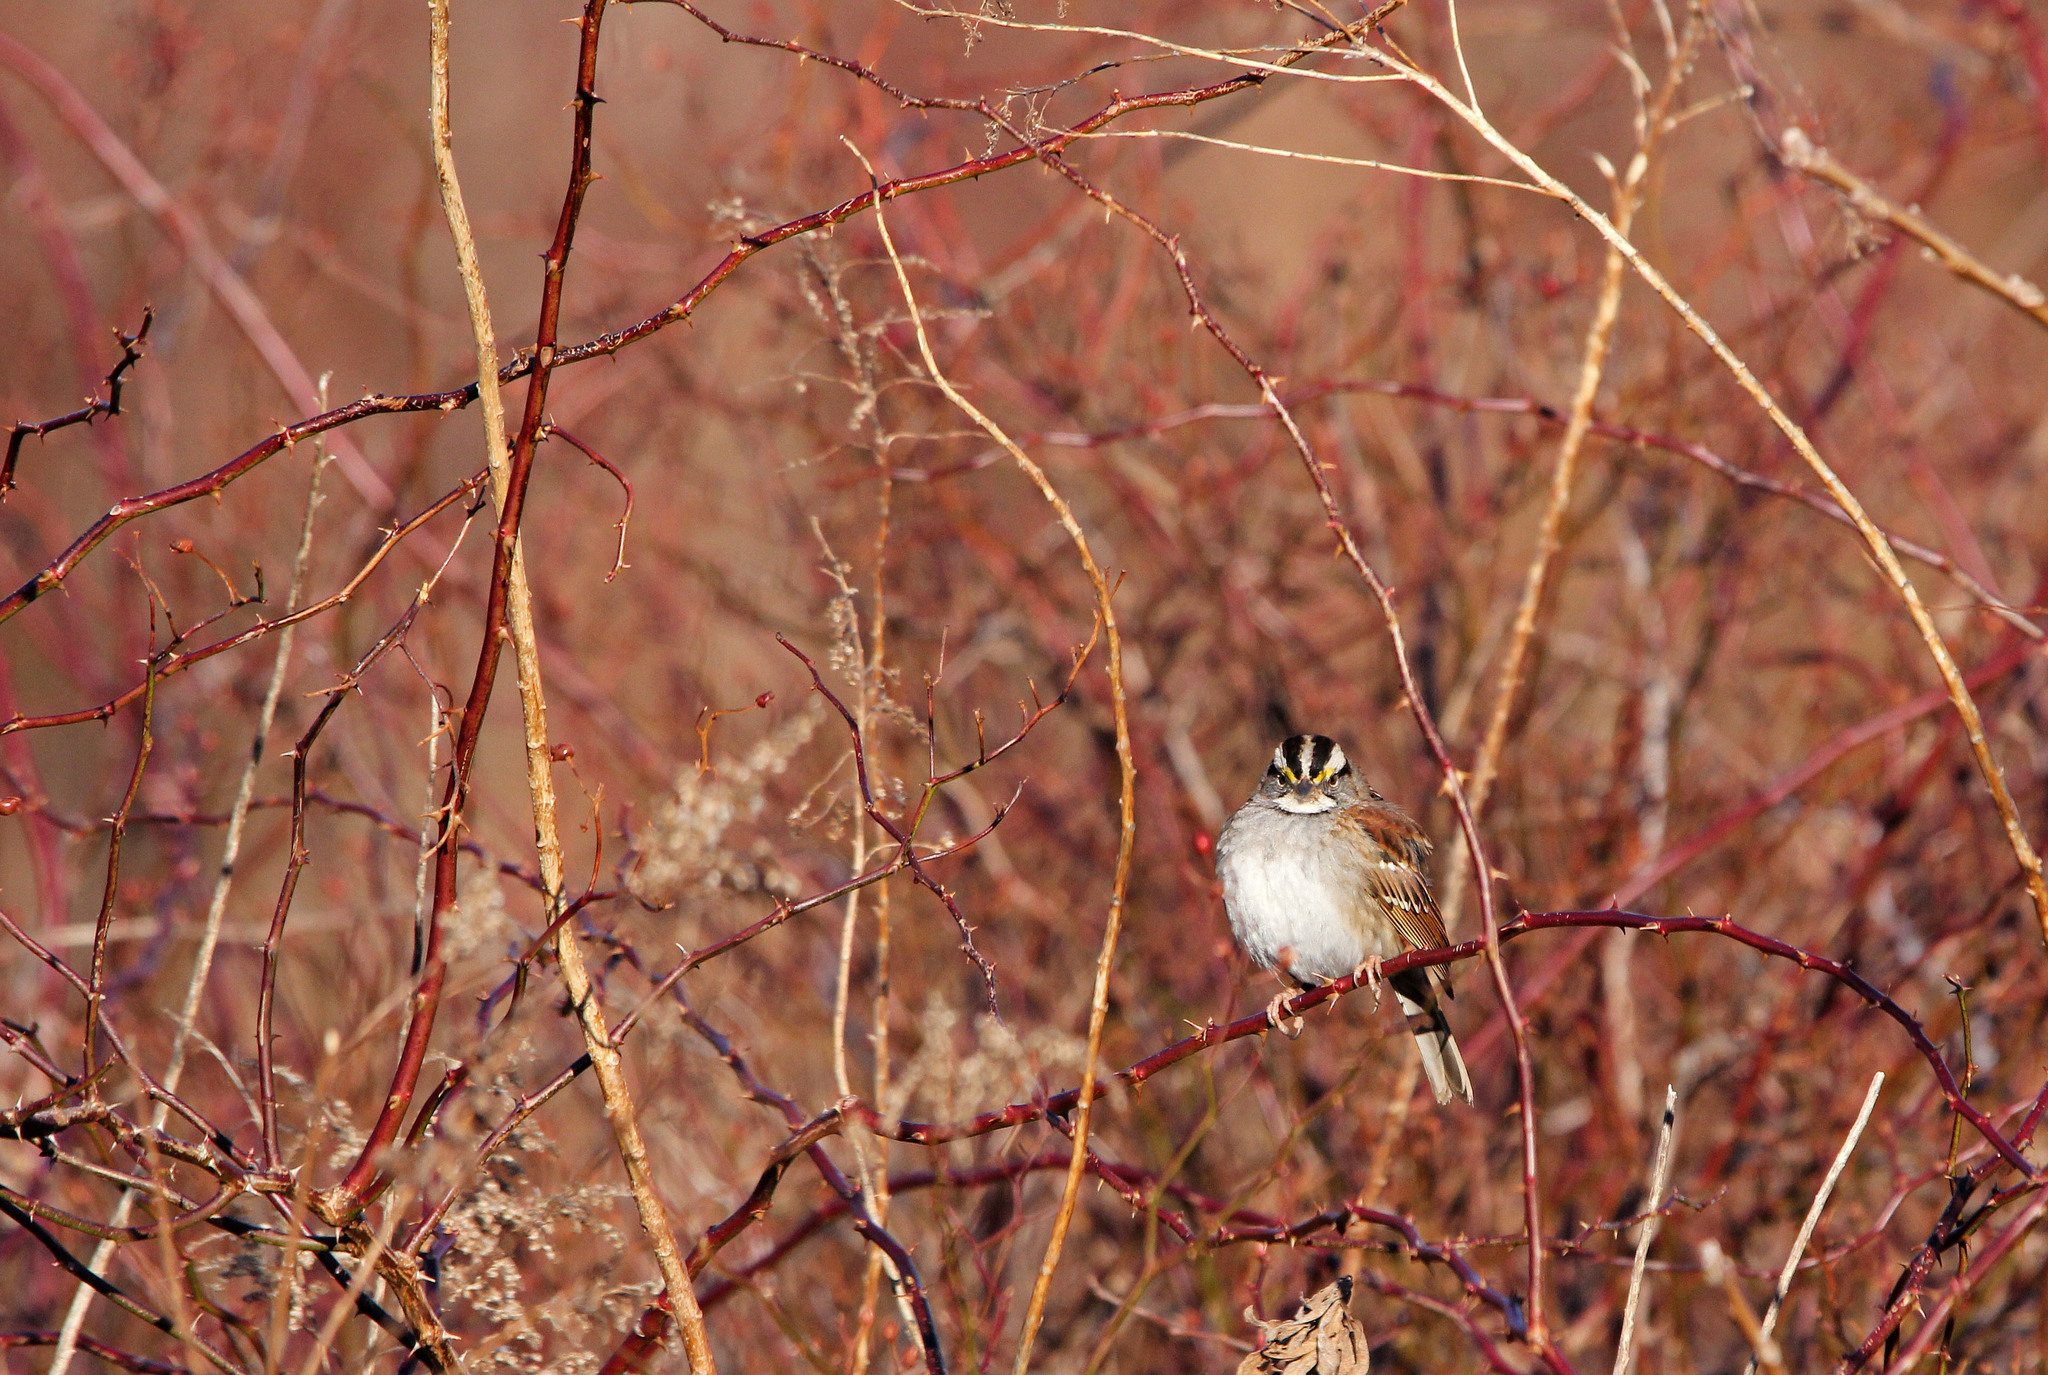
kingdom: Animalia
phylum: Chordata
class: Aves
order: Passeriformes
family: Passerellidae
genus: Zonotrichia
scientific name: Zonotrichia albicollis
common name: White-throated sparrow
